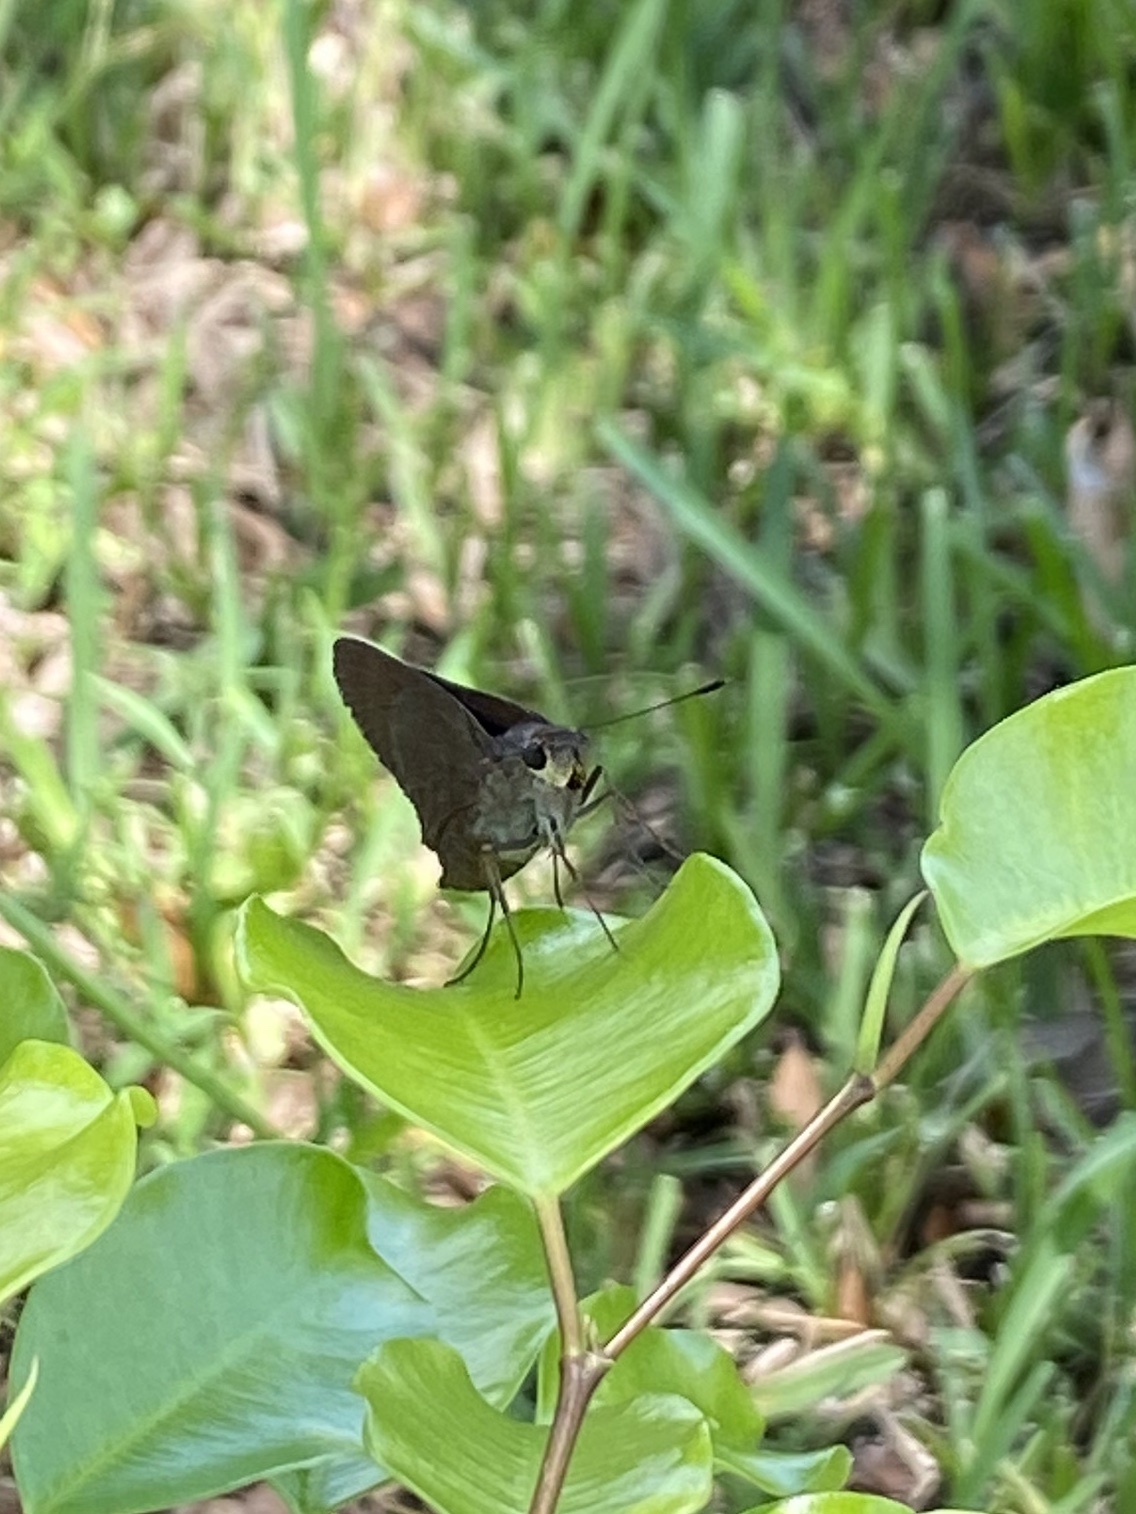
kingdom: Animalia
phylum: Arthropoda
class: Insecta
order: Lepidoptera
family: Hesperiidae
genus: Asbolis
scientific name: Asbolis capucinus
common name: Monk skipper
